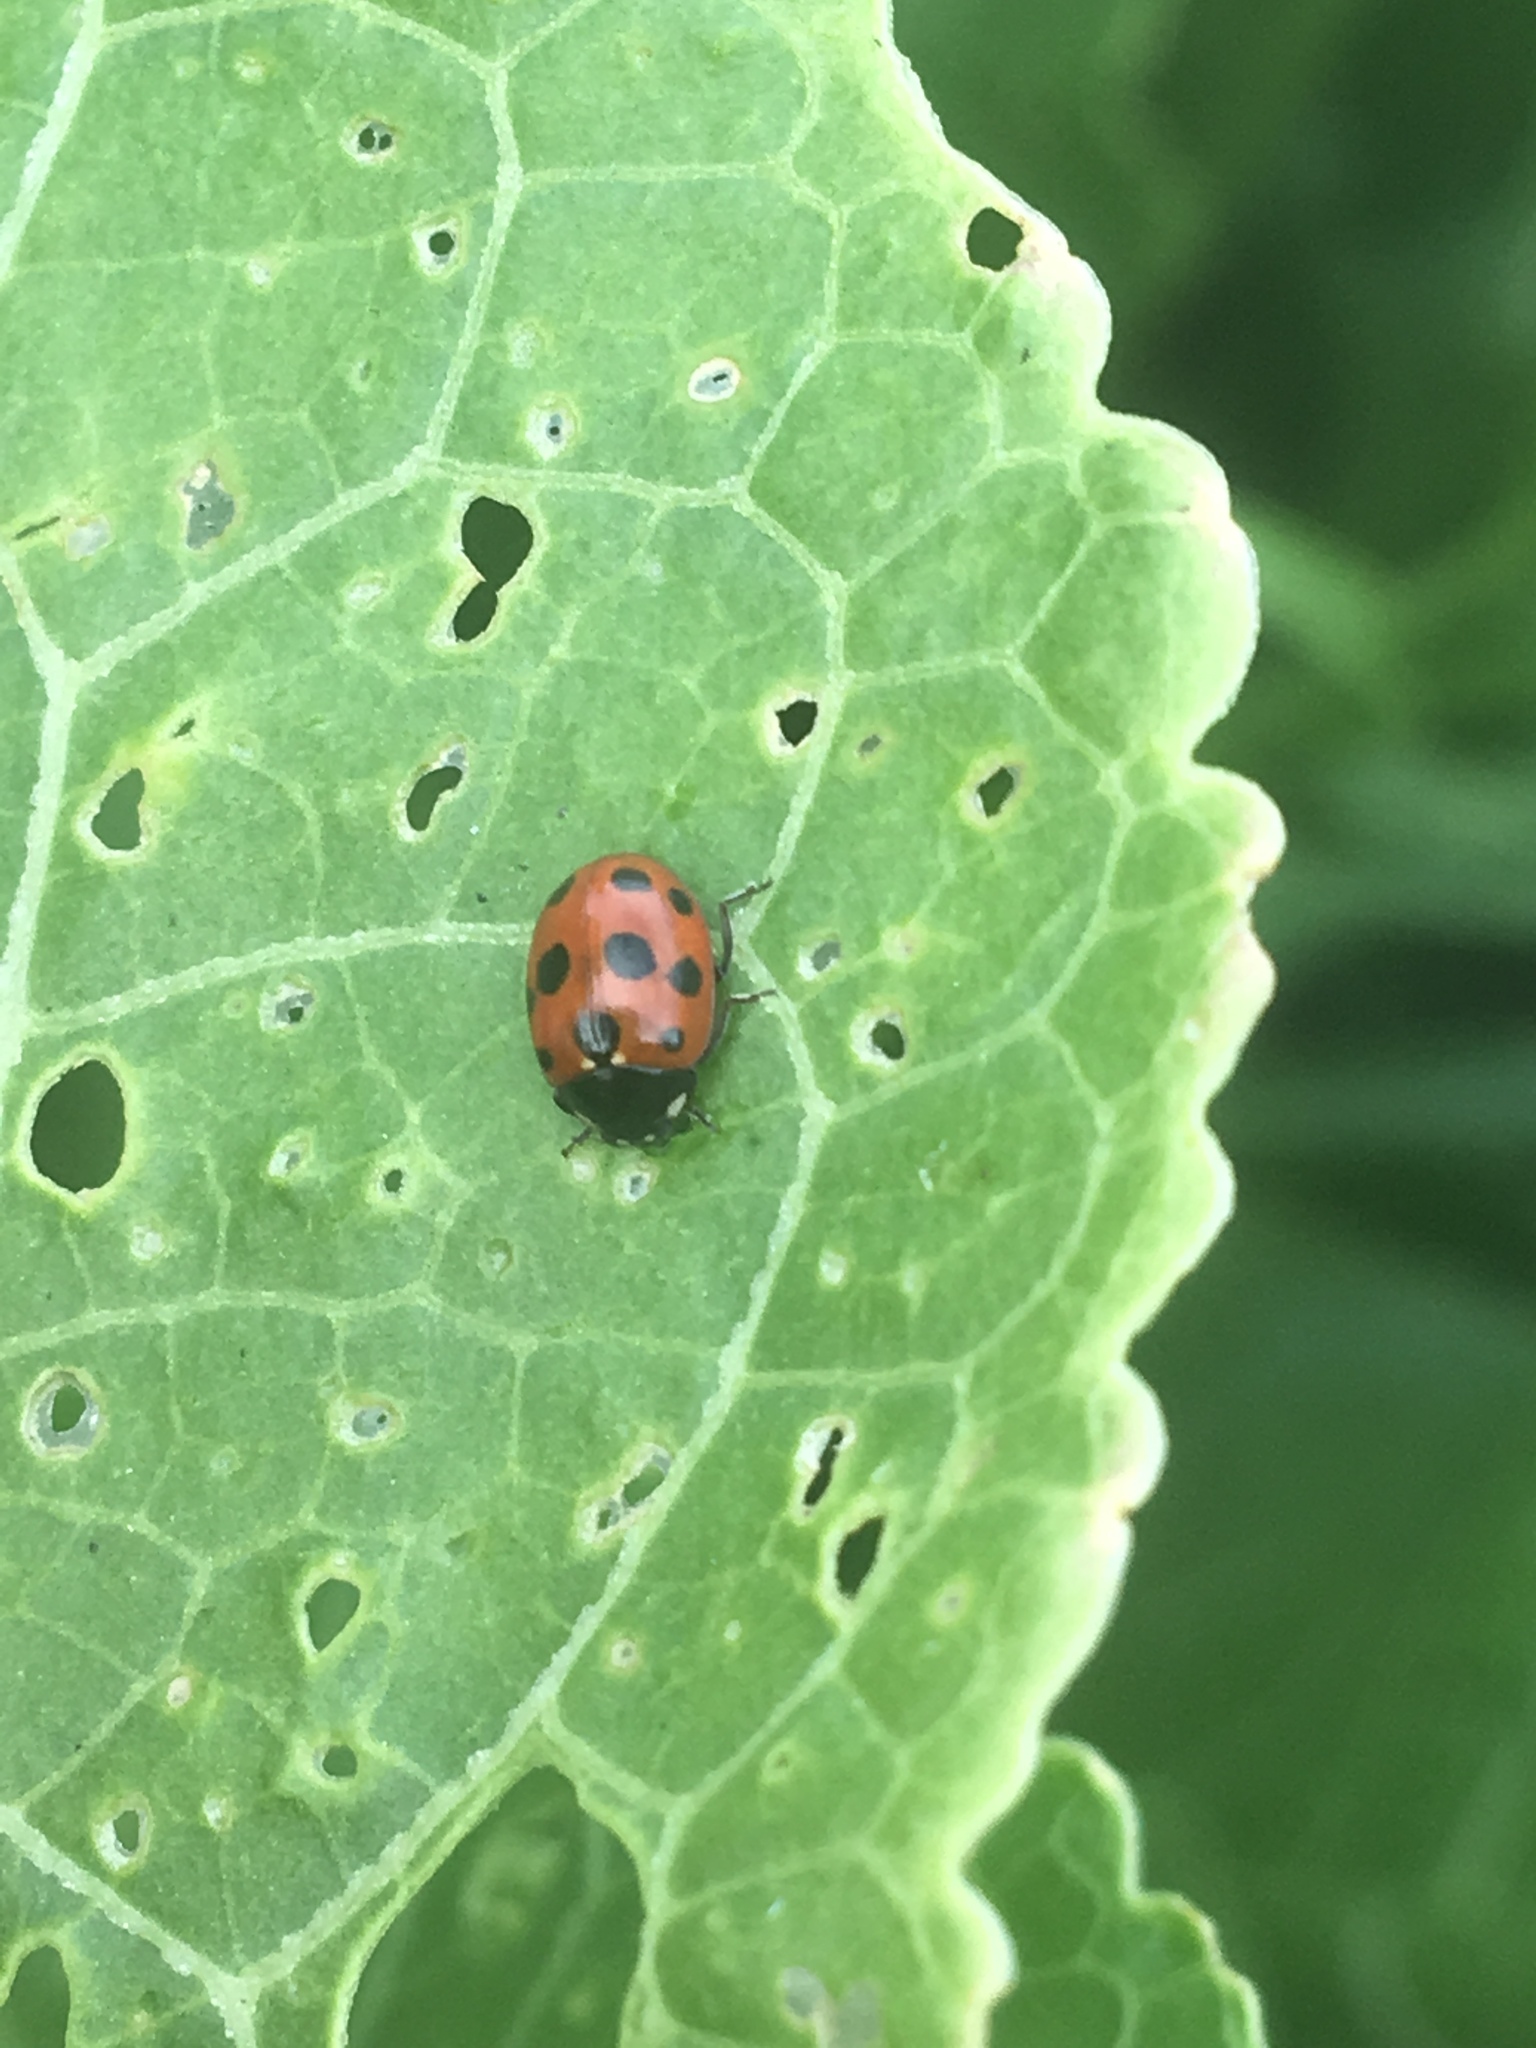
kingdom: Animalia
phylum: Arthropoda
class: Insecta
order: Coleoptera
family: Coccinellidae
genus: Coccinella
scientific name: Coccinella undecimpunctata
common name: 11-spot ladybird
